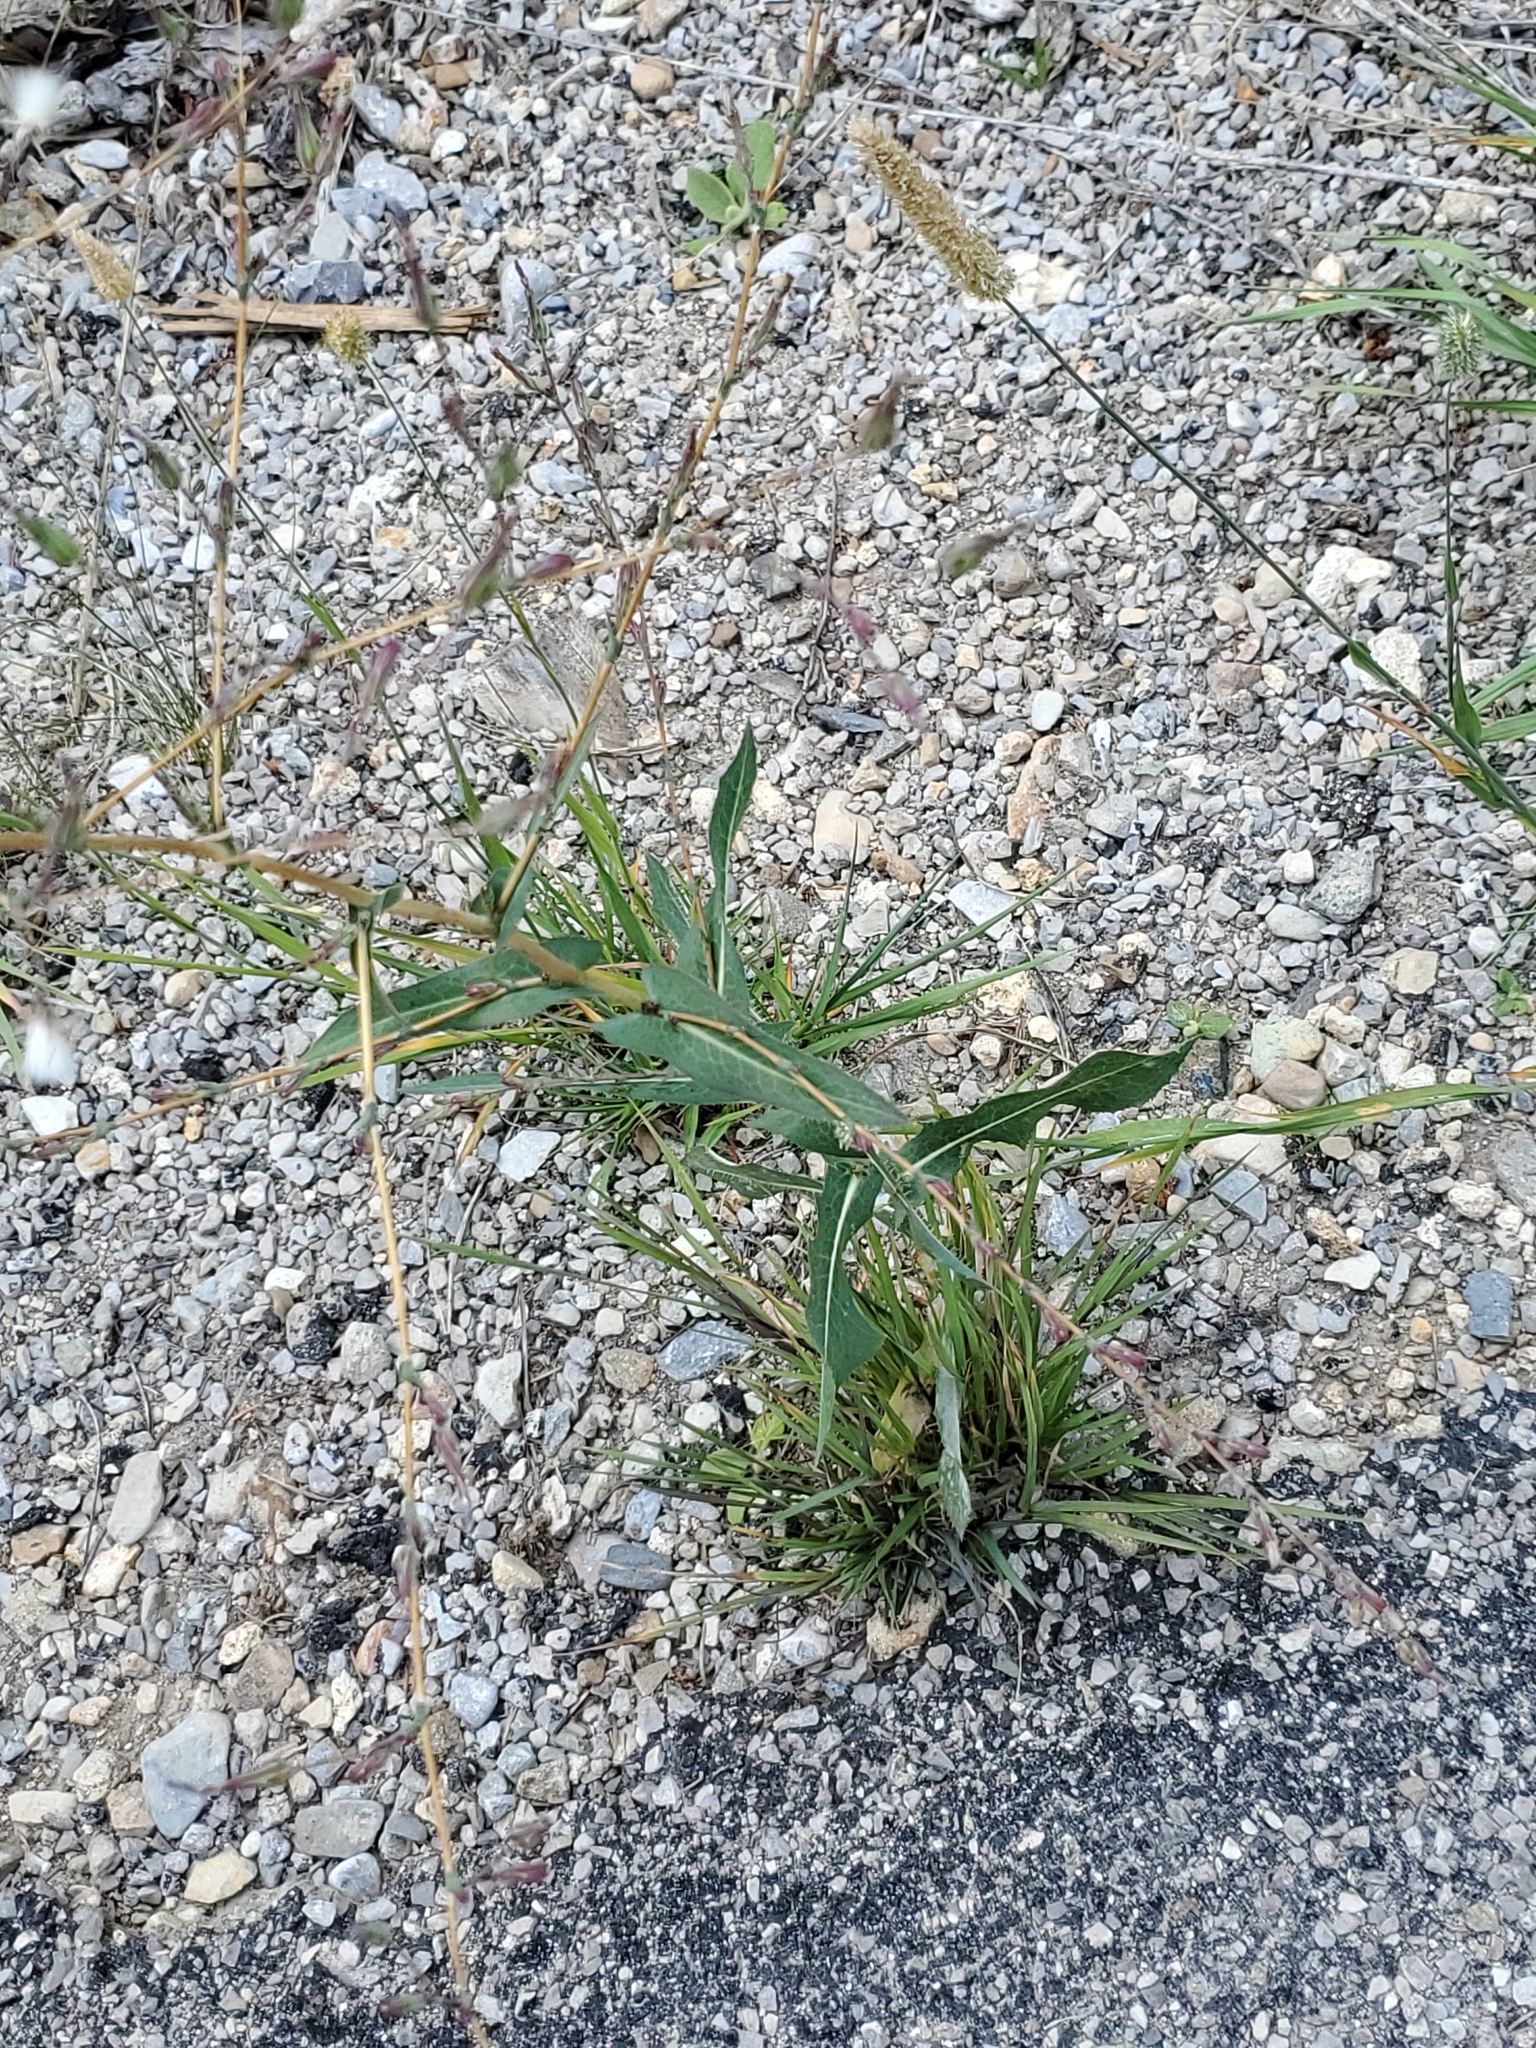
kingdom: Plantae
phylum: Tracheophyta
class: Magnoliopsida
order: Asterales
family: Asteraceae
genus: Lactuca
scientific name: Lactuca serriola
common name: Prickly lettuce
